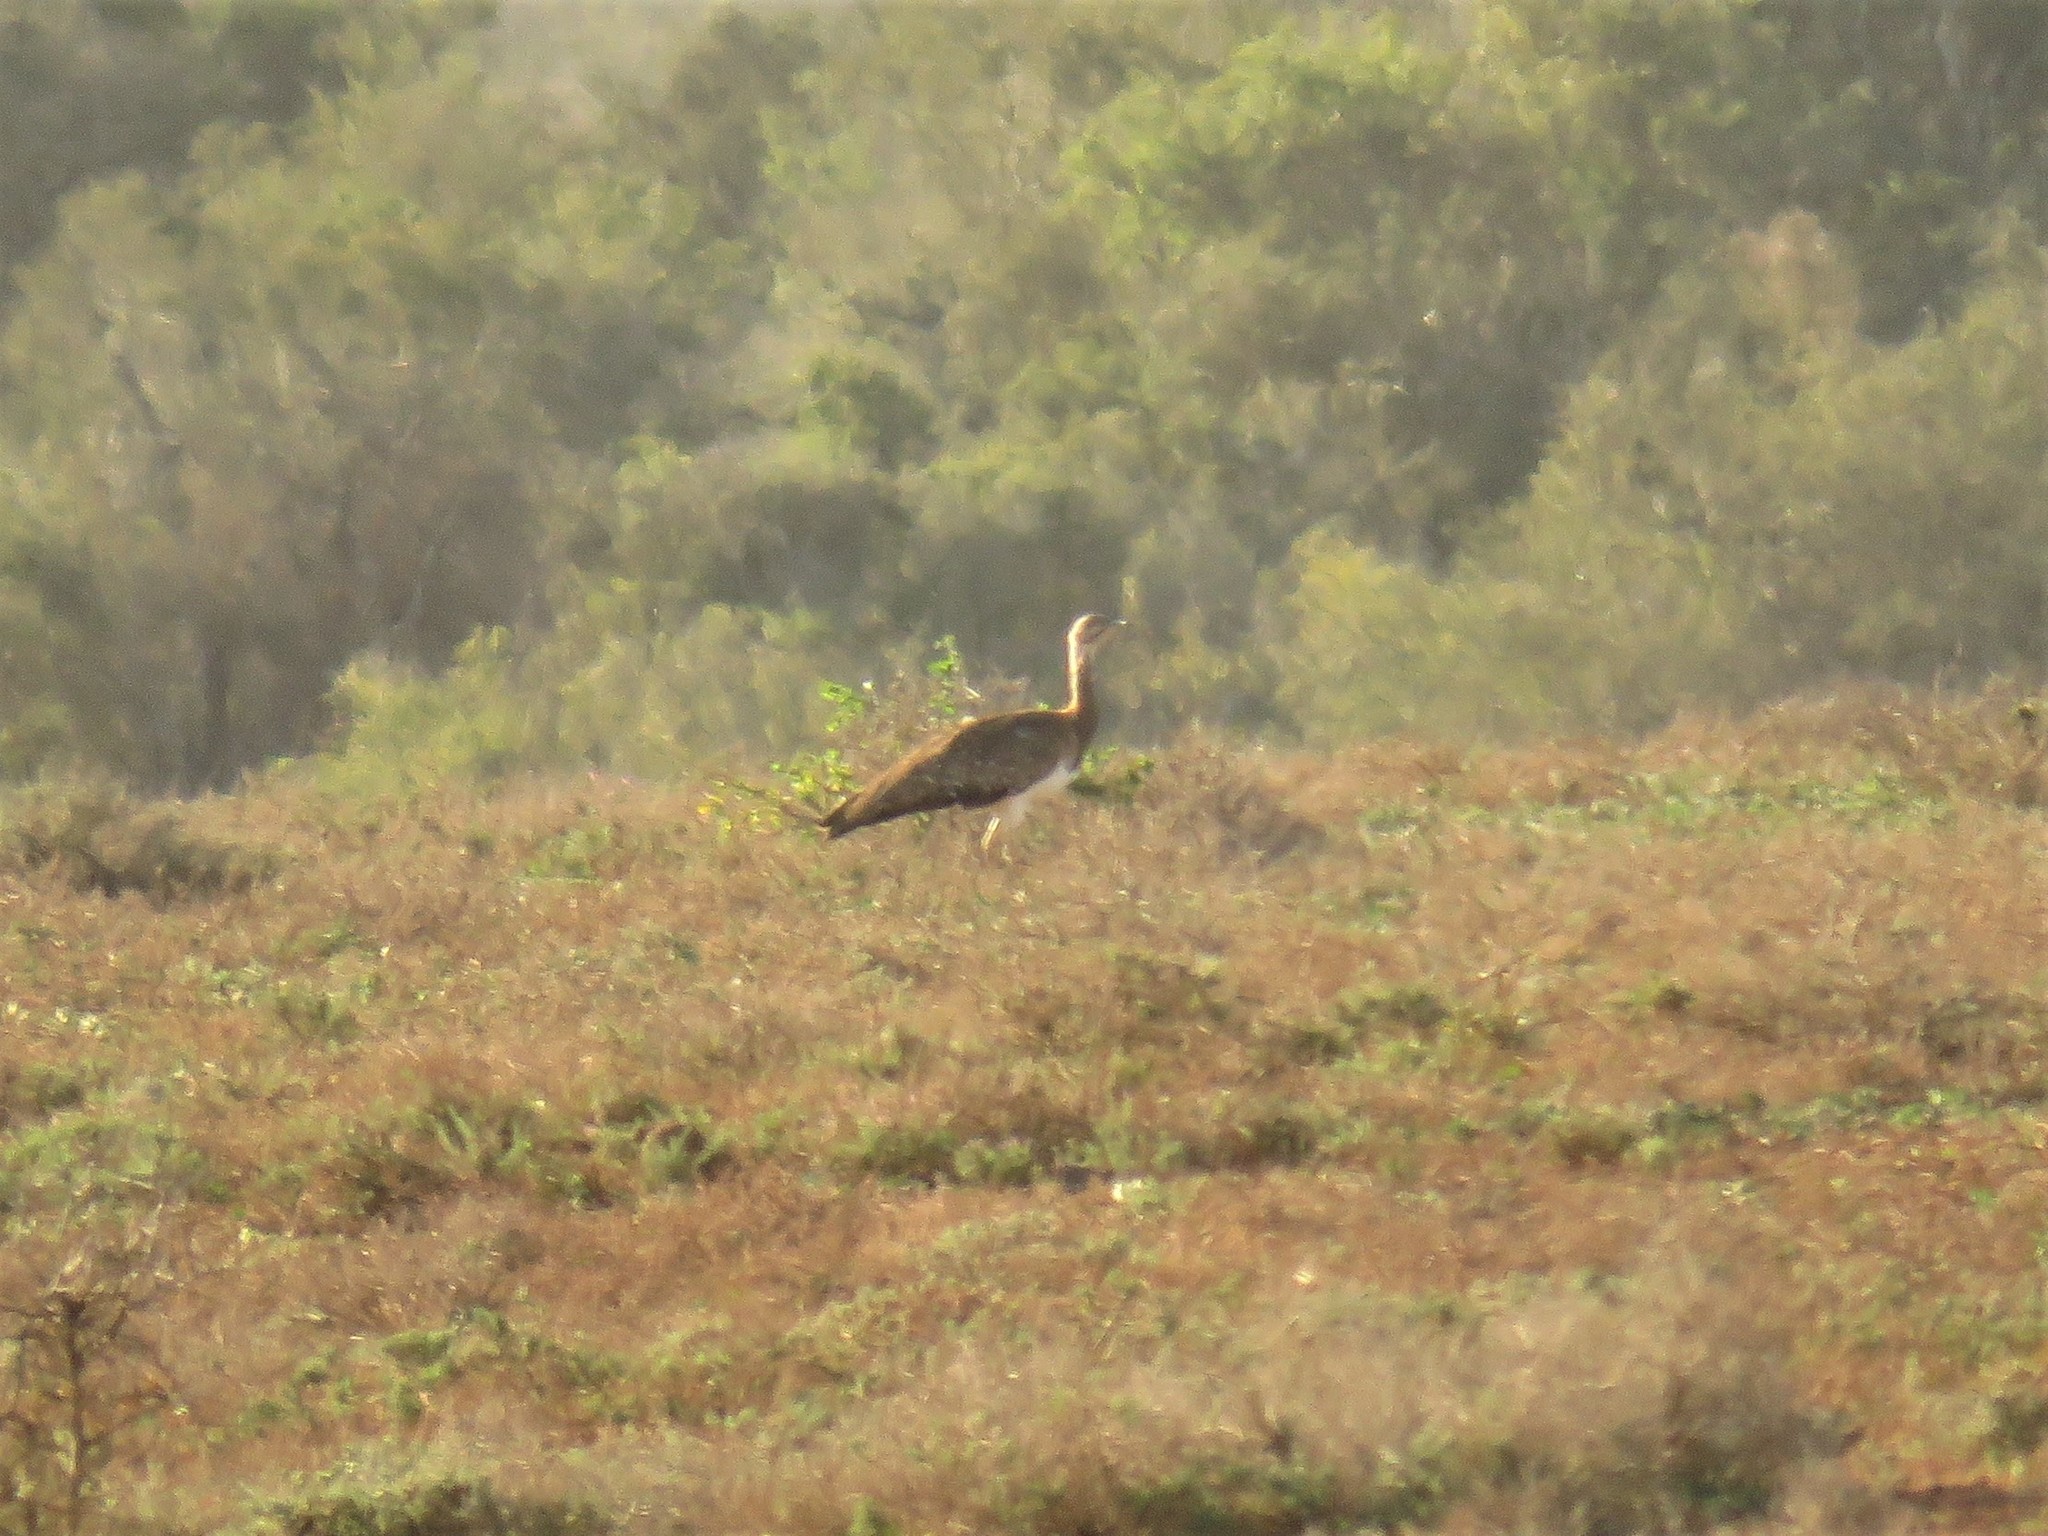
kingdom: Animalia
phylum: Chordata
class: Aves
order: Otidiformes
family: Otididae
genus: Neotis
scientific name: Neotis ludwigii
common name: Ludwig's bustard
